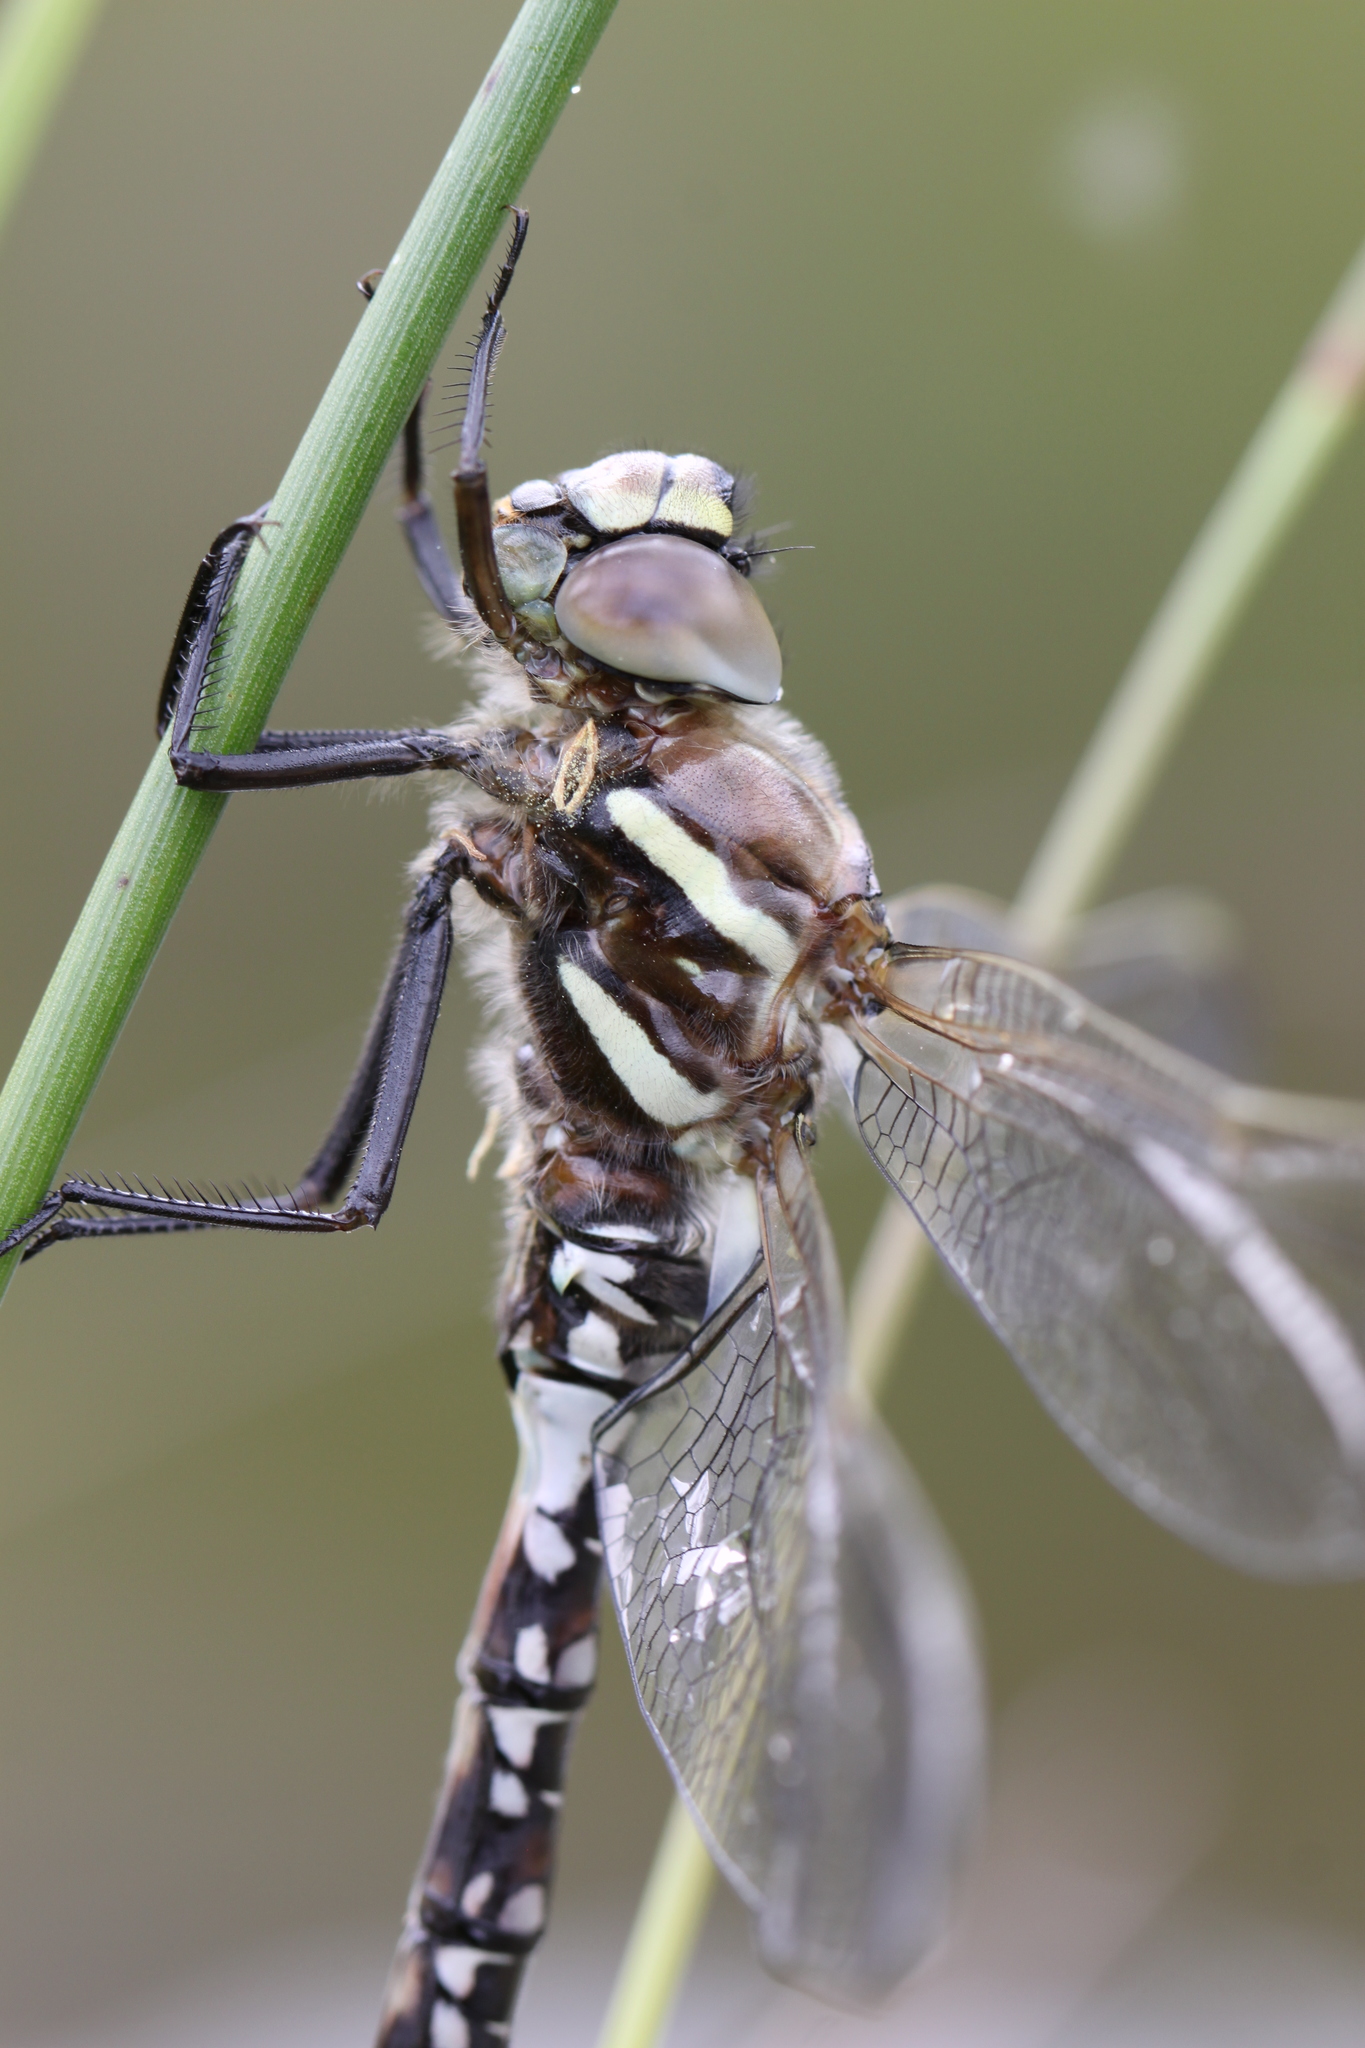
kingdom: Animalia
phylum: Arthropoda
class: Insecta
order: Odonata
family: Aeshnidae
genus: Aeshna
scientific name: Aeshna juncea
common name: Moorland hawker
